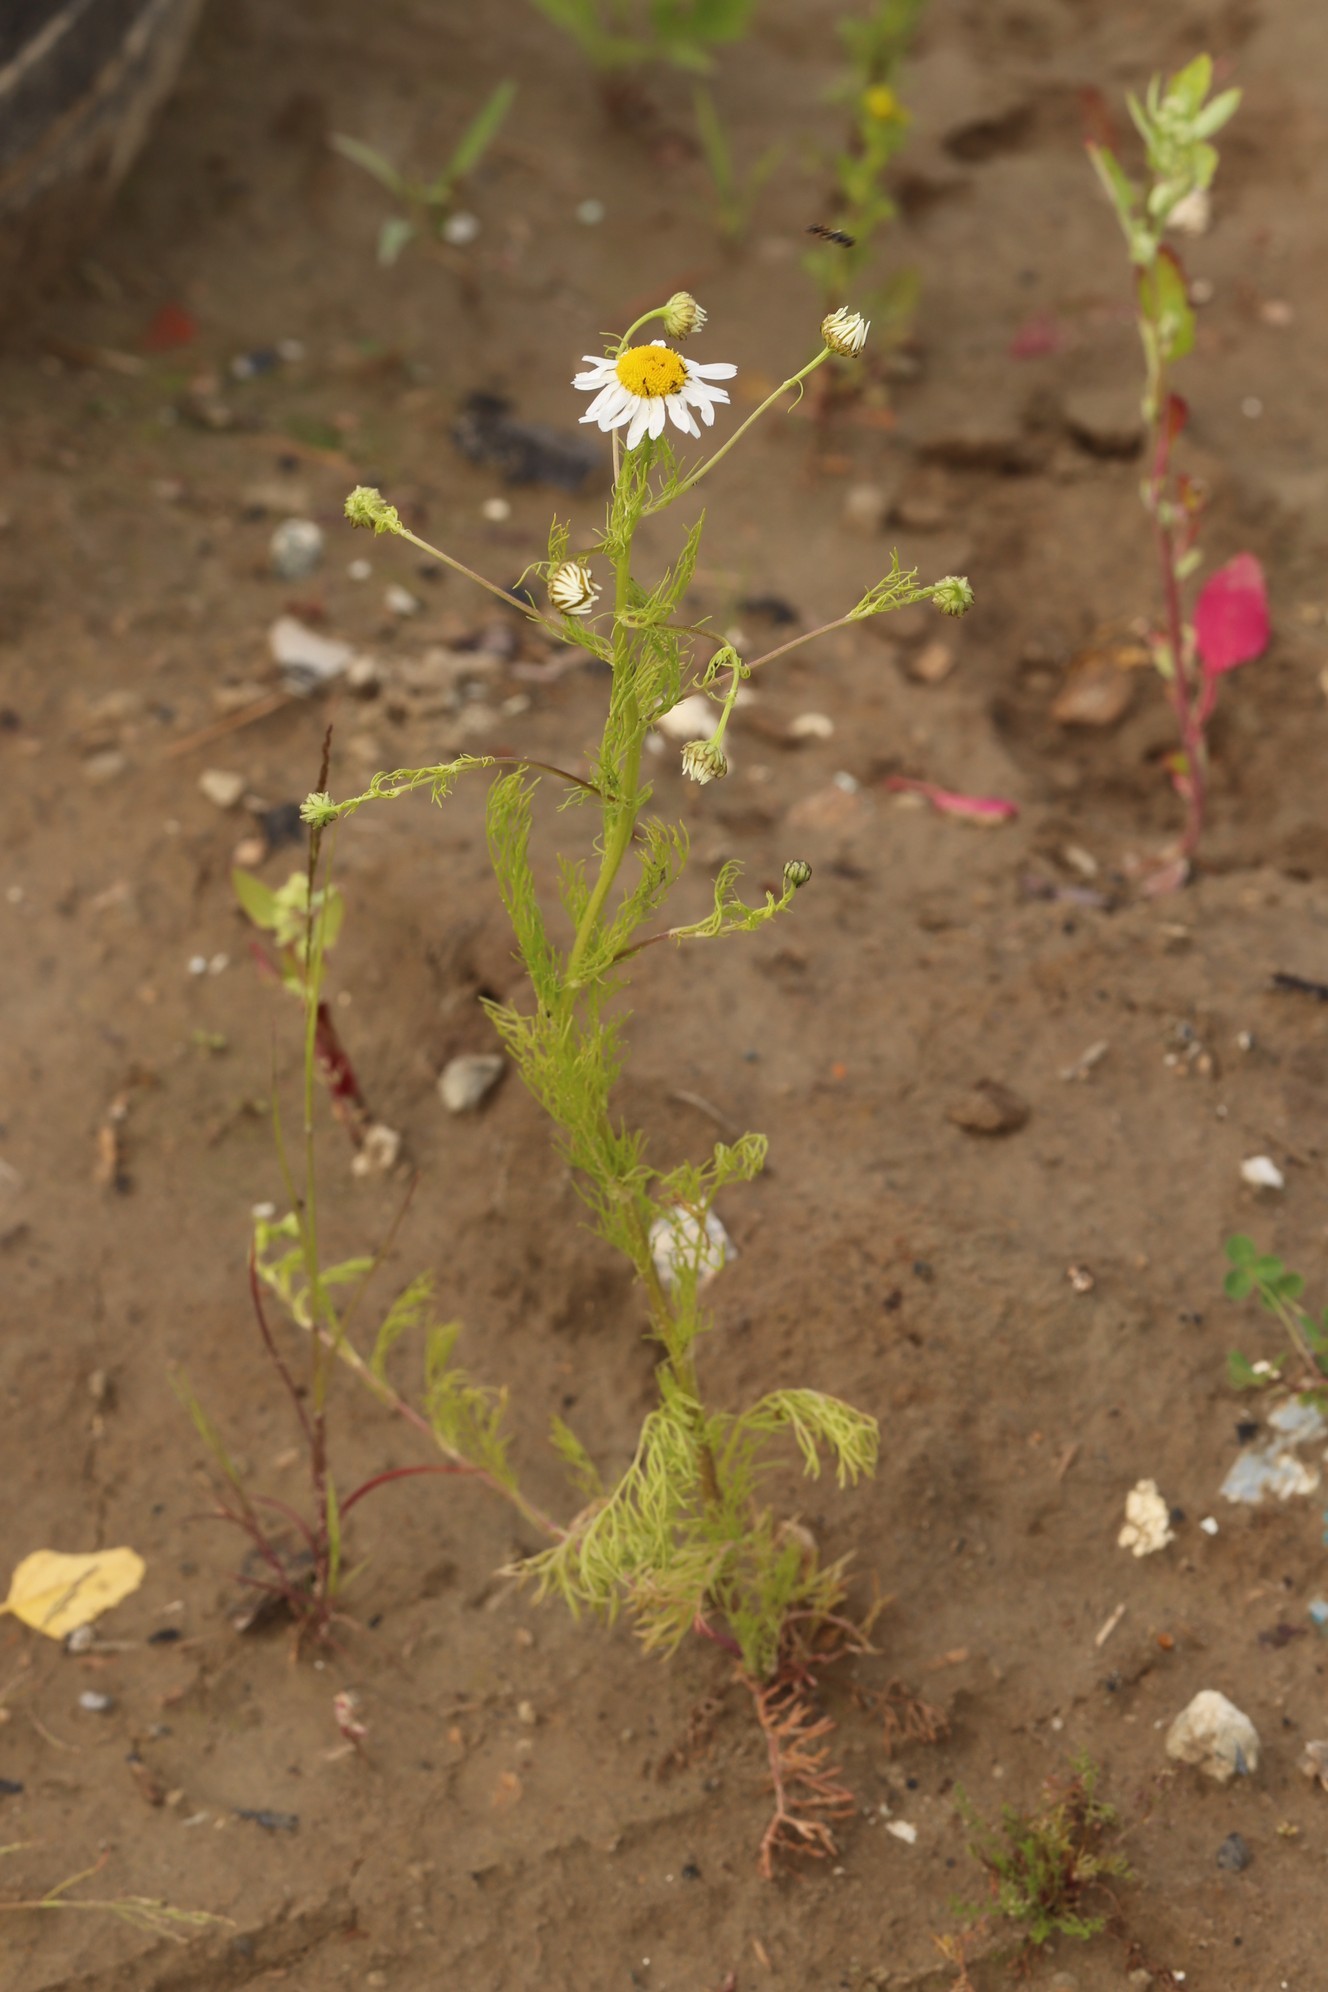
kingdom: Plantae
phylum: Tracheophyta
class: Magnoliopsida
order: Asterales
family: Asteraceae
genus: Tripleurospermum
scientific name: Tripleurospermum inodorum
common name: Scentless mayweed
